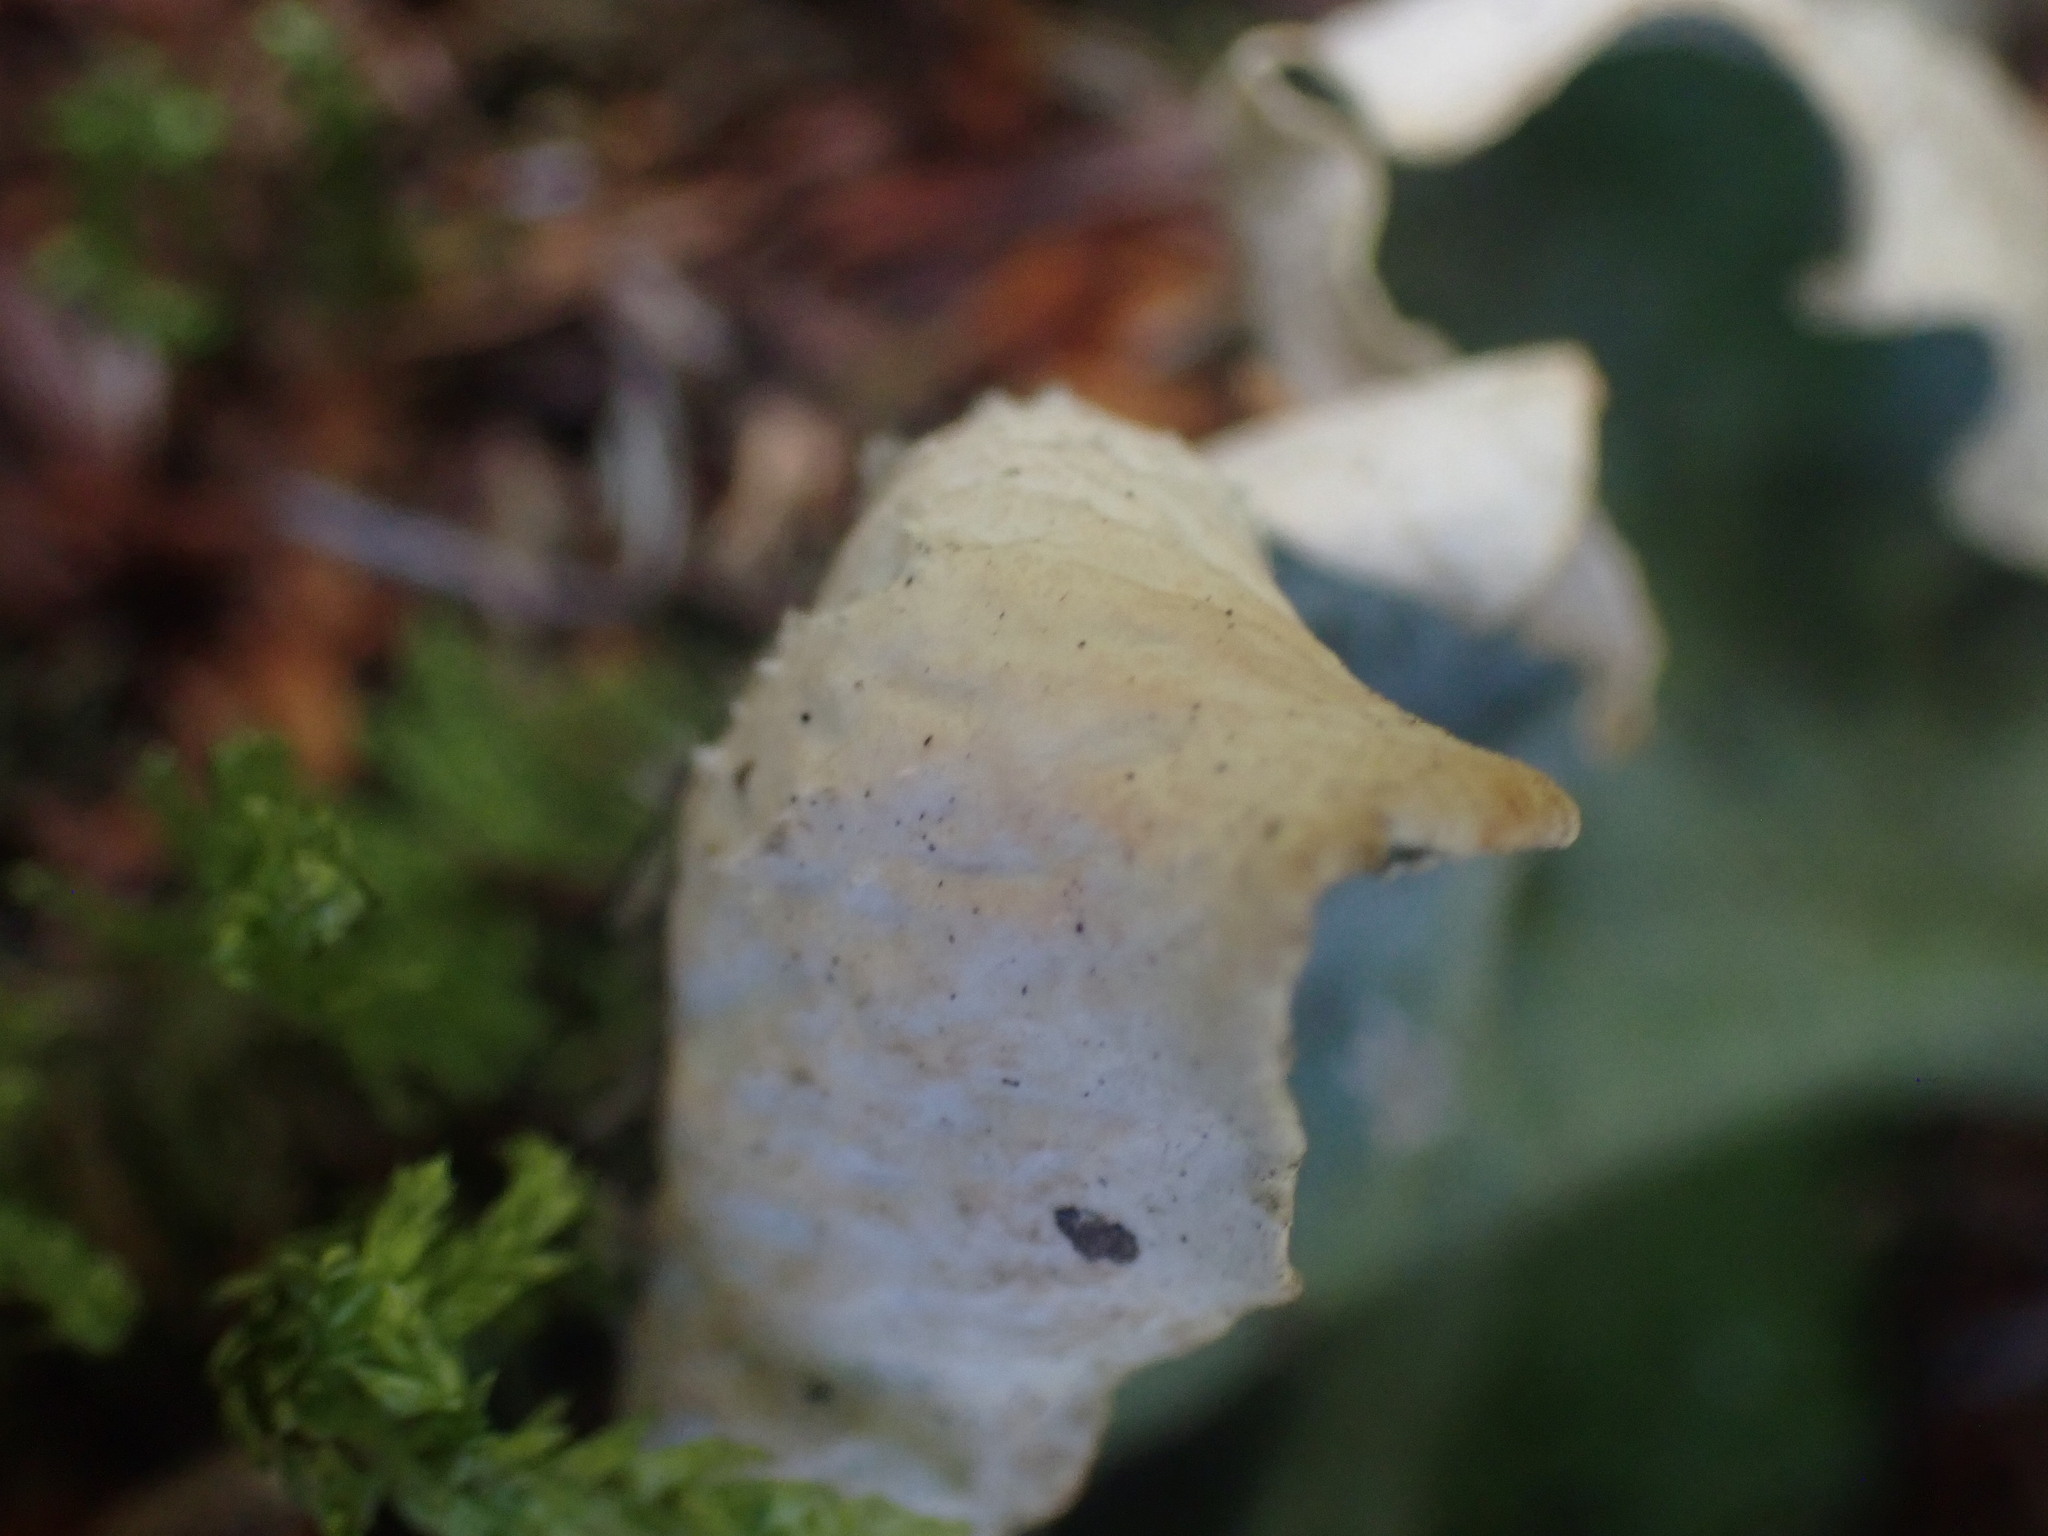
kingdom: Fungi
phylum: Ascomycota
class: Lecanoromycetes
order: Peltigerales
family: Peltigeraceae
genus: Peltigera
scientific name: Peltigera aphthosa
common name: Common freckle pelt lichen
